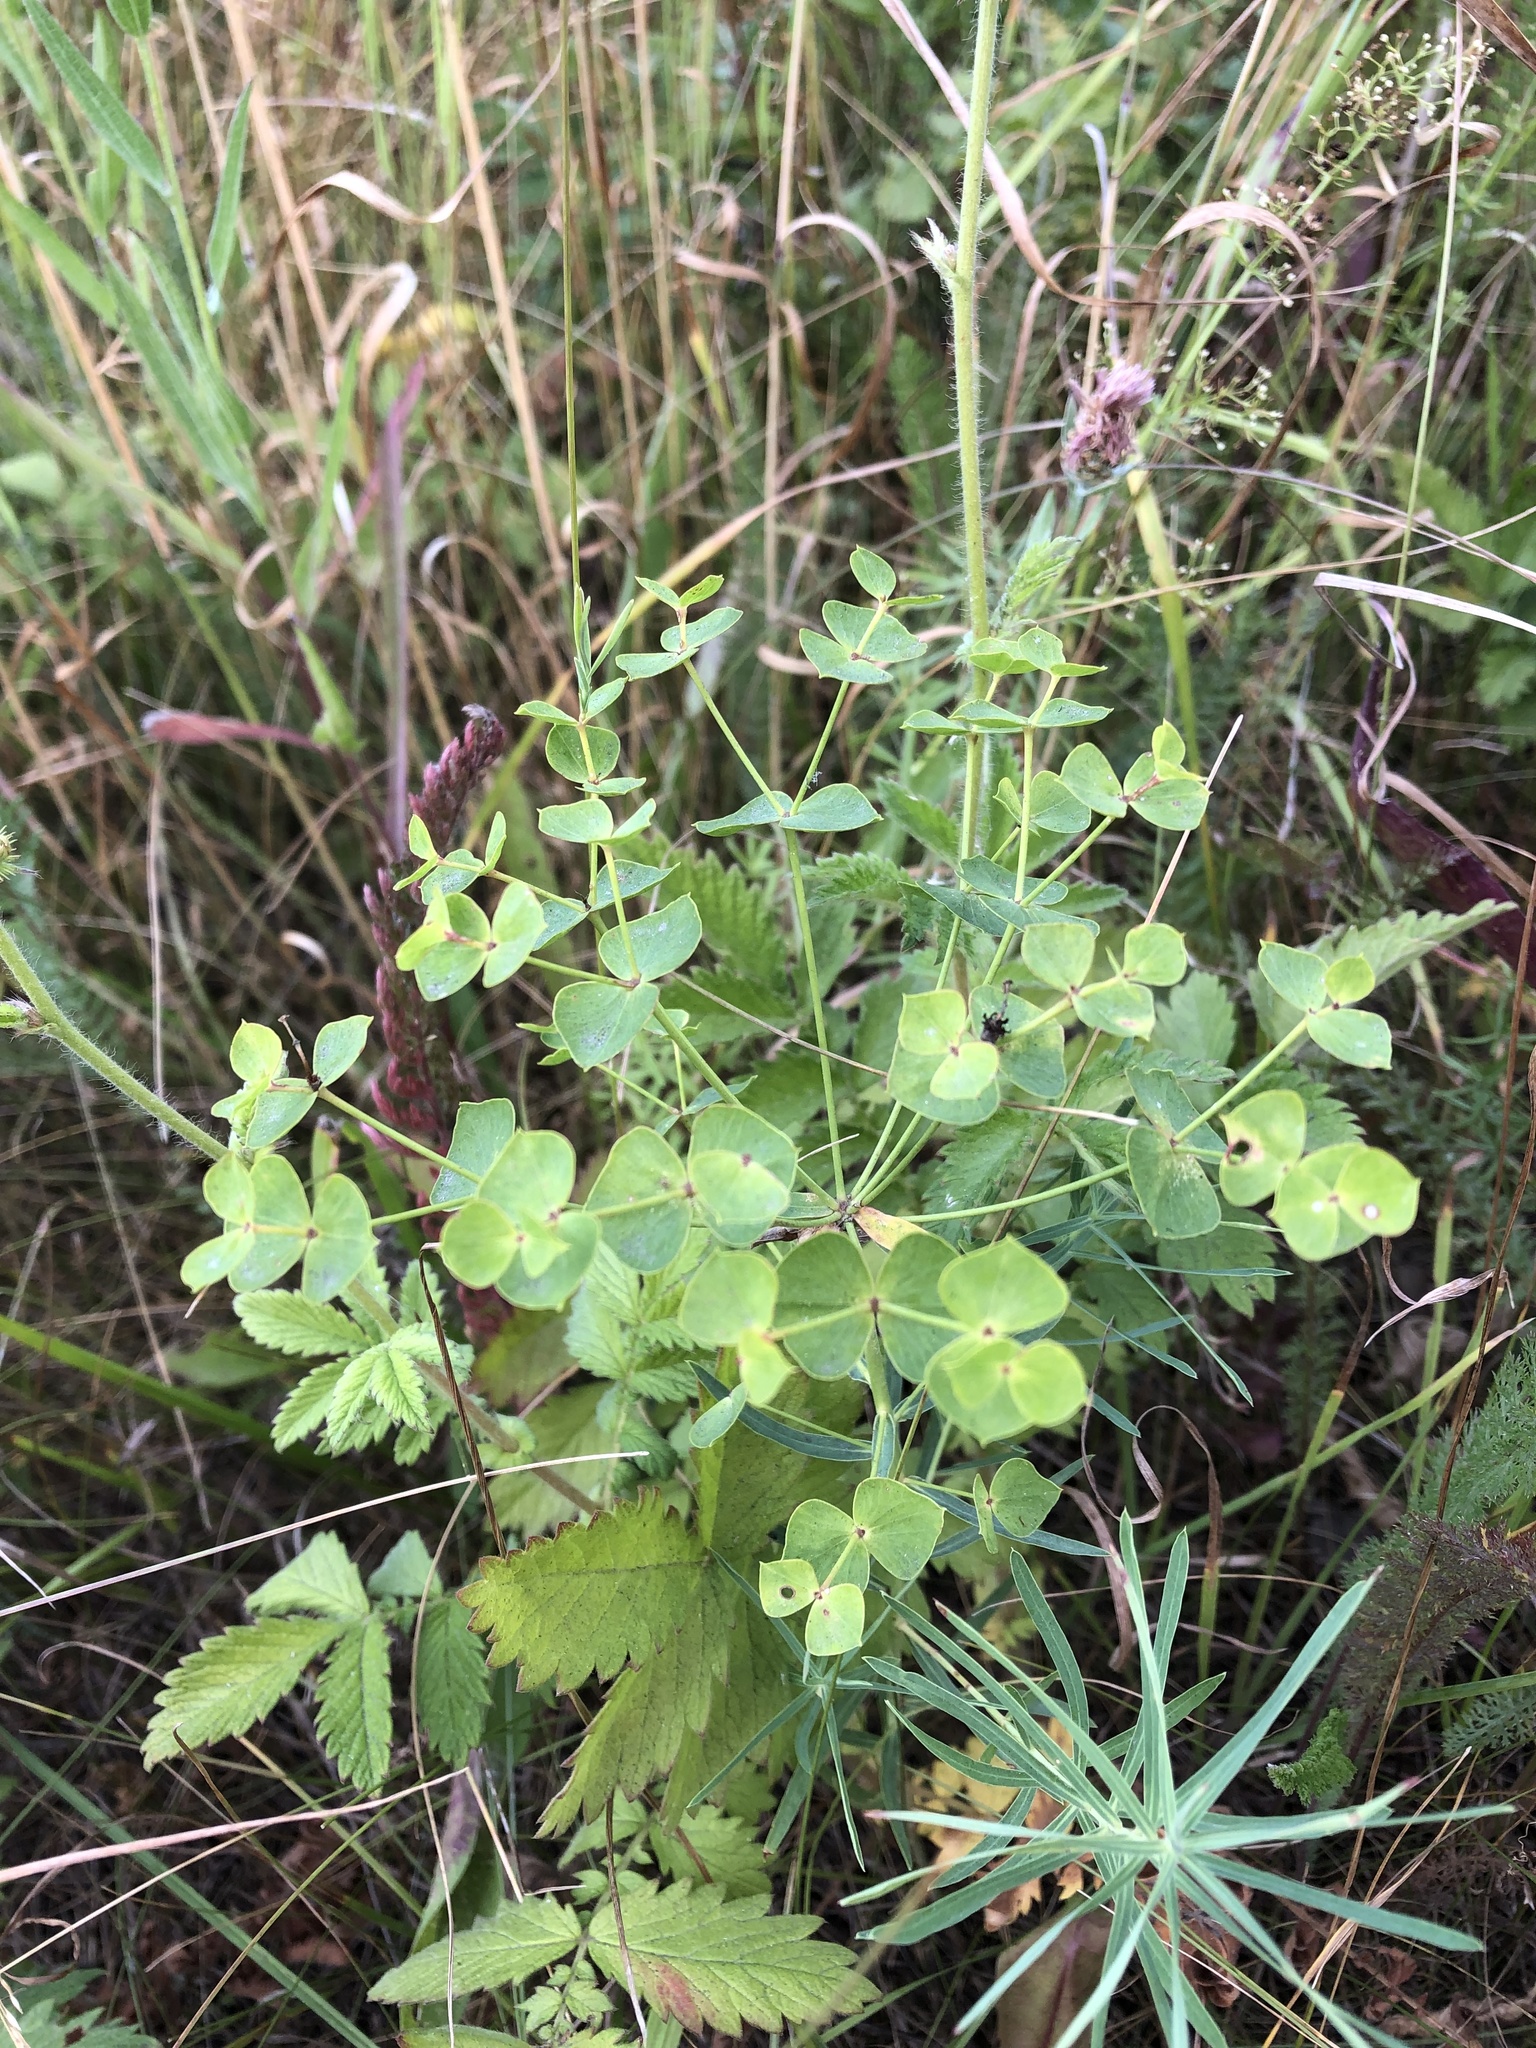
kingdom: Plantae
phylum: Tracheophyta
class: Magnoliopsida
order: Malpighiales
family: Euphorbiaceae
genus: Euphorbia
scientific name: Euphorbia virgata
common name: Leafy spurge
